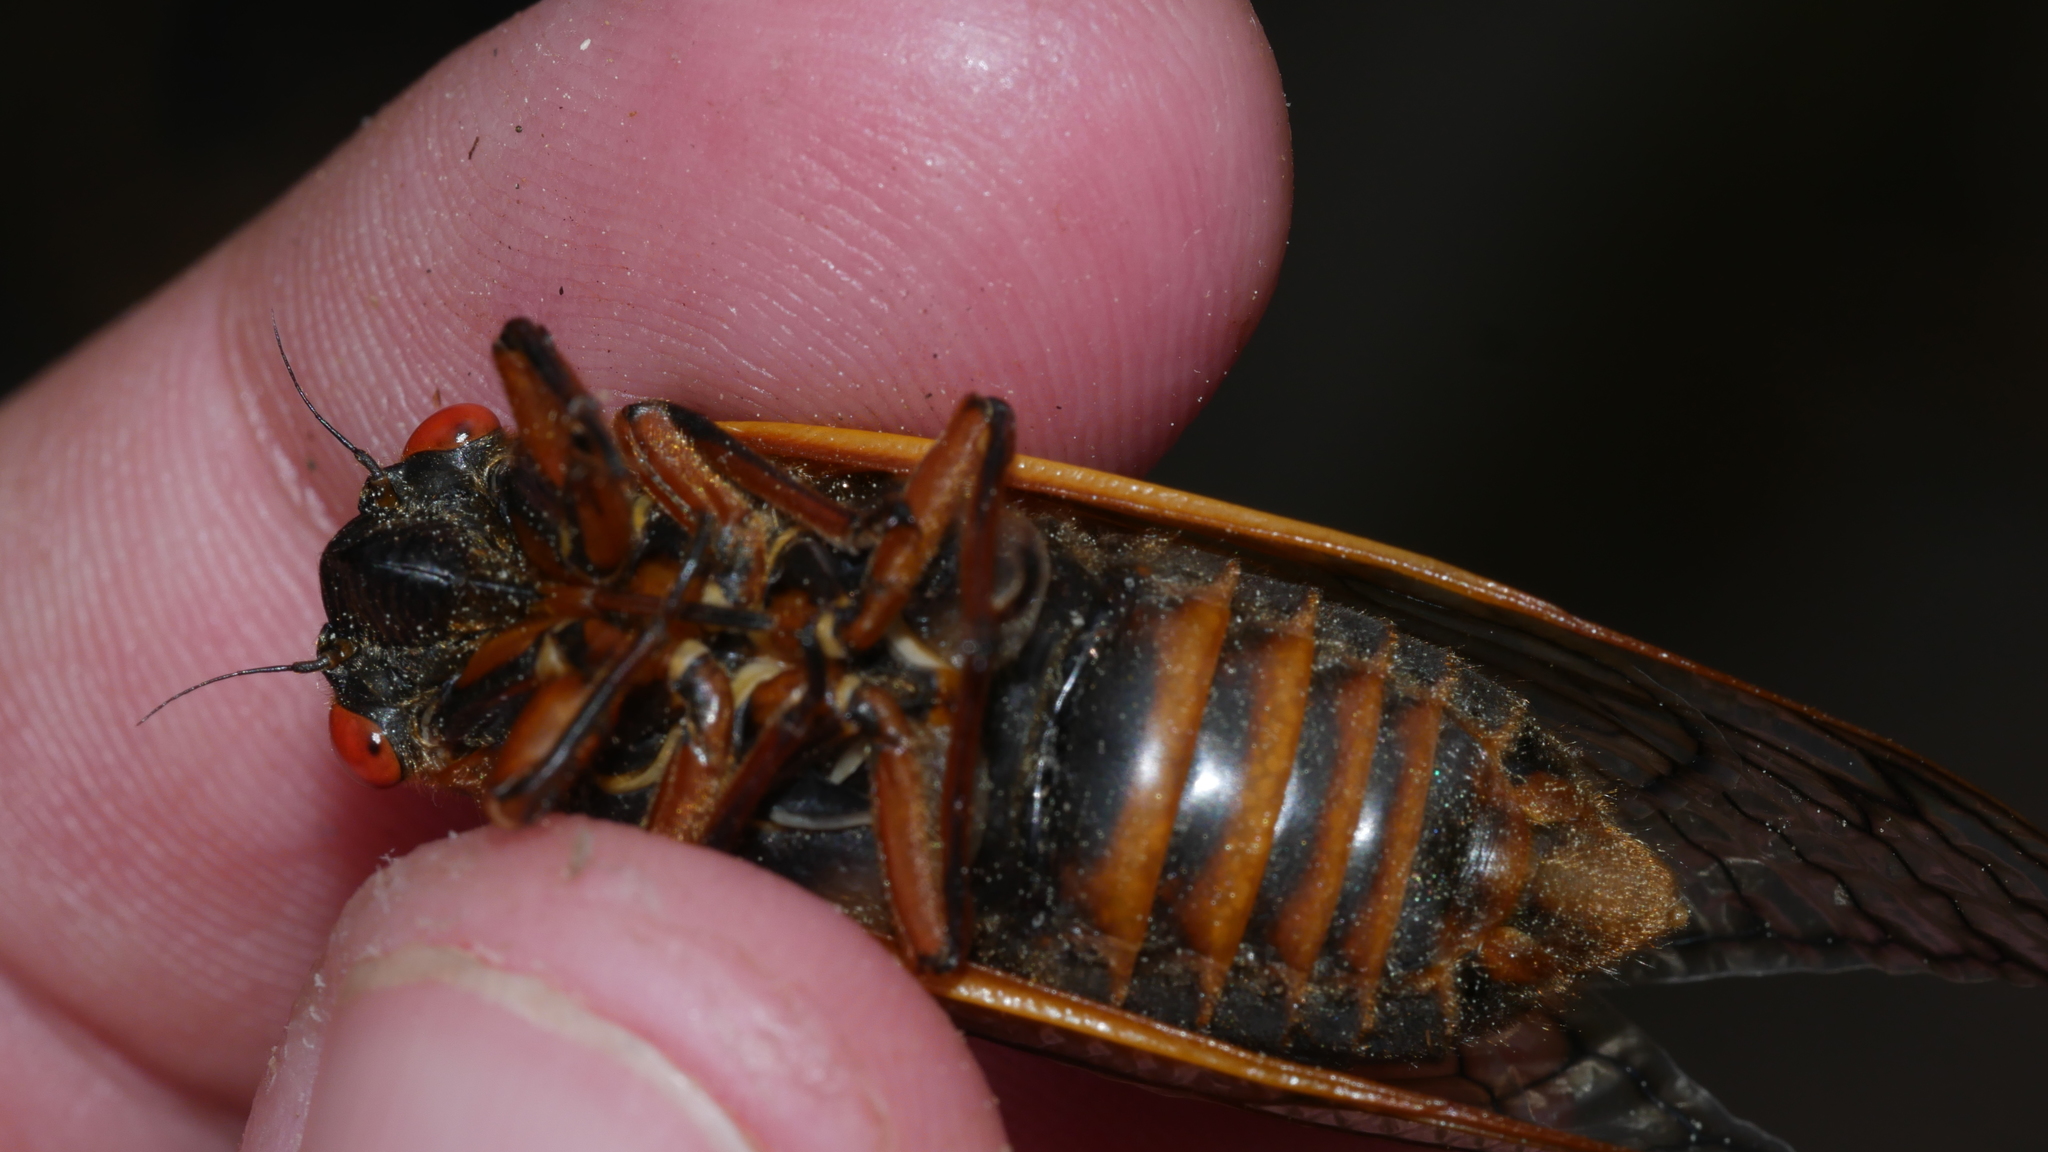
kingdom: Animalia
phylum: Arthropoda
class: Insecta
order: Hemiptera
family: Cicadidae
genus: Magicicada
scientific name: Magicicada septendecim
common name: Periodical cicada
